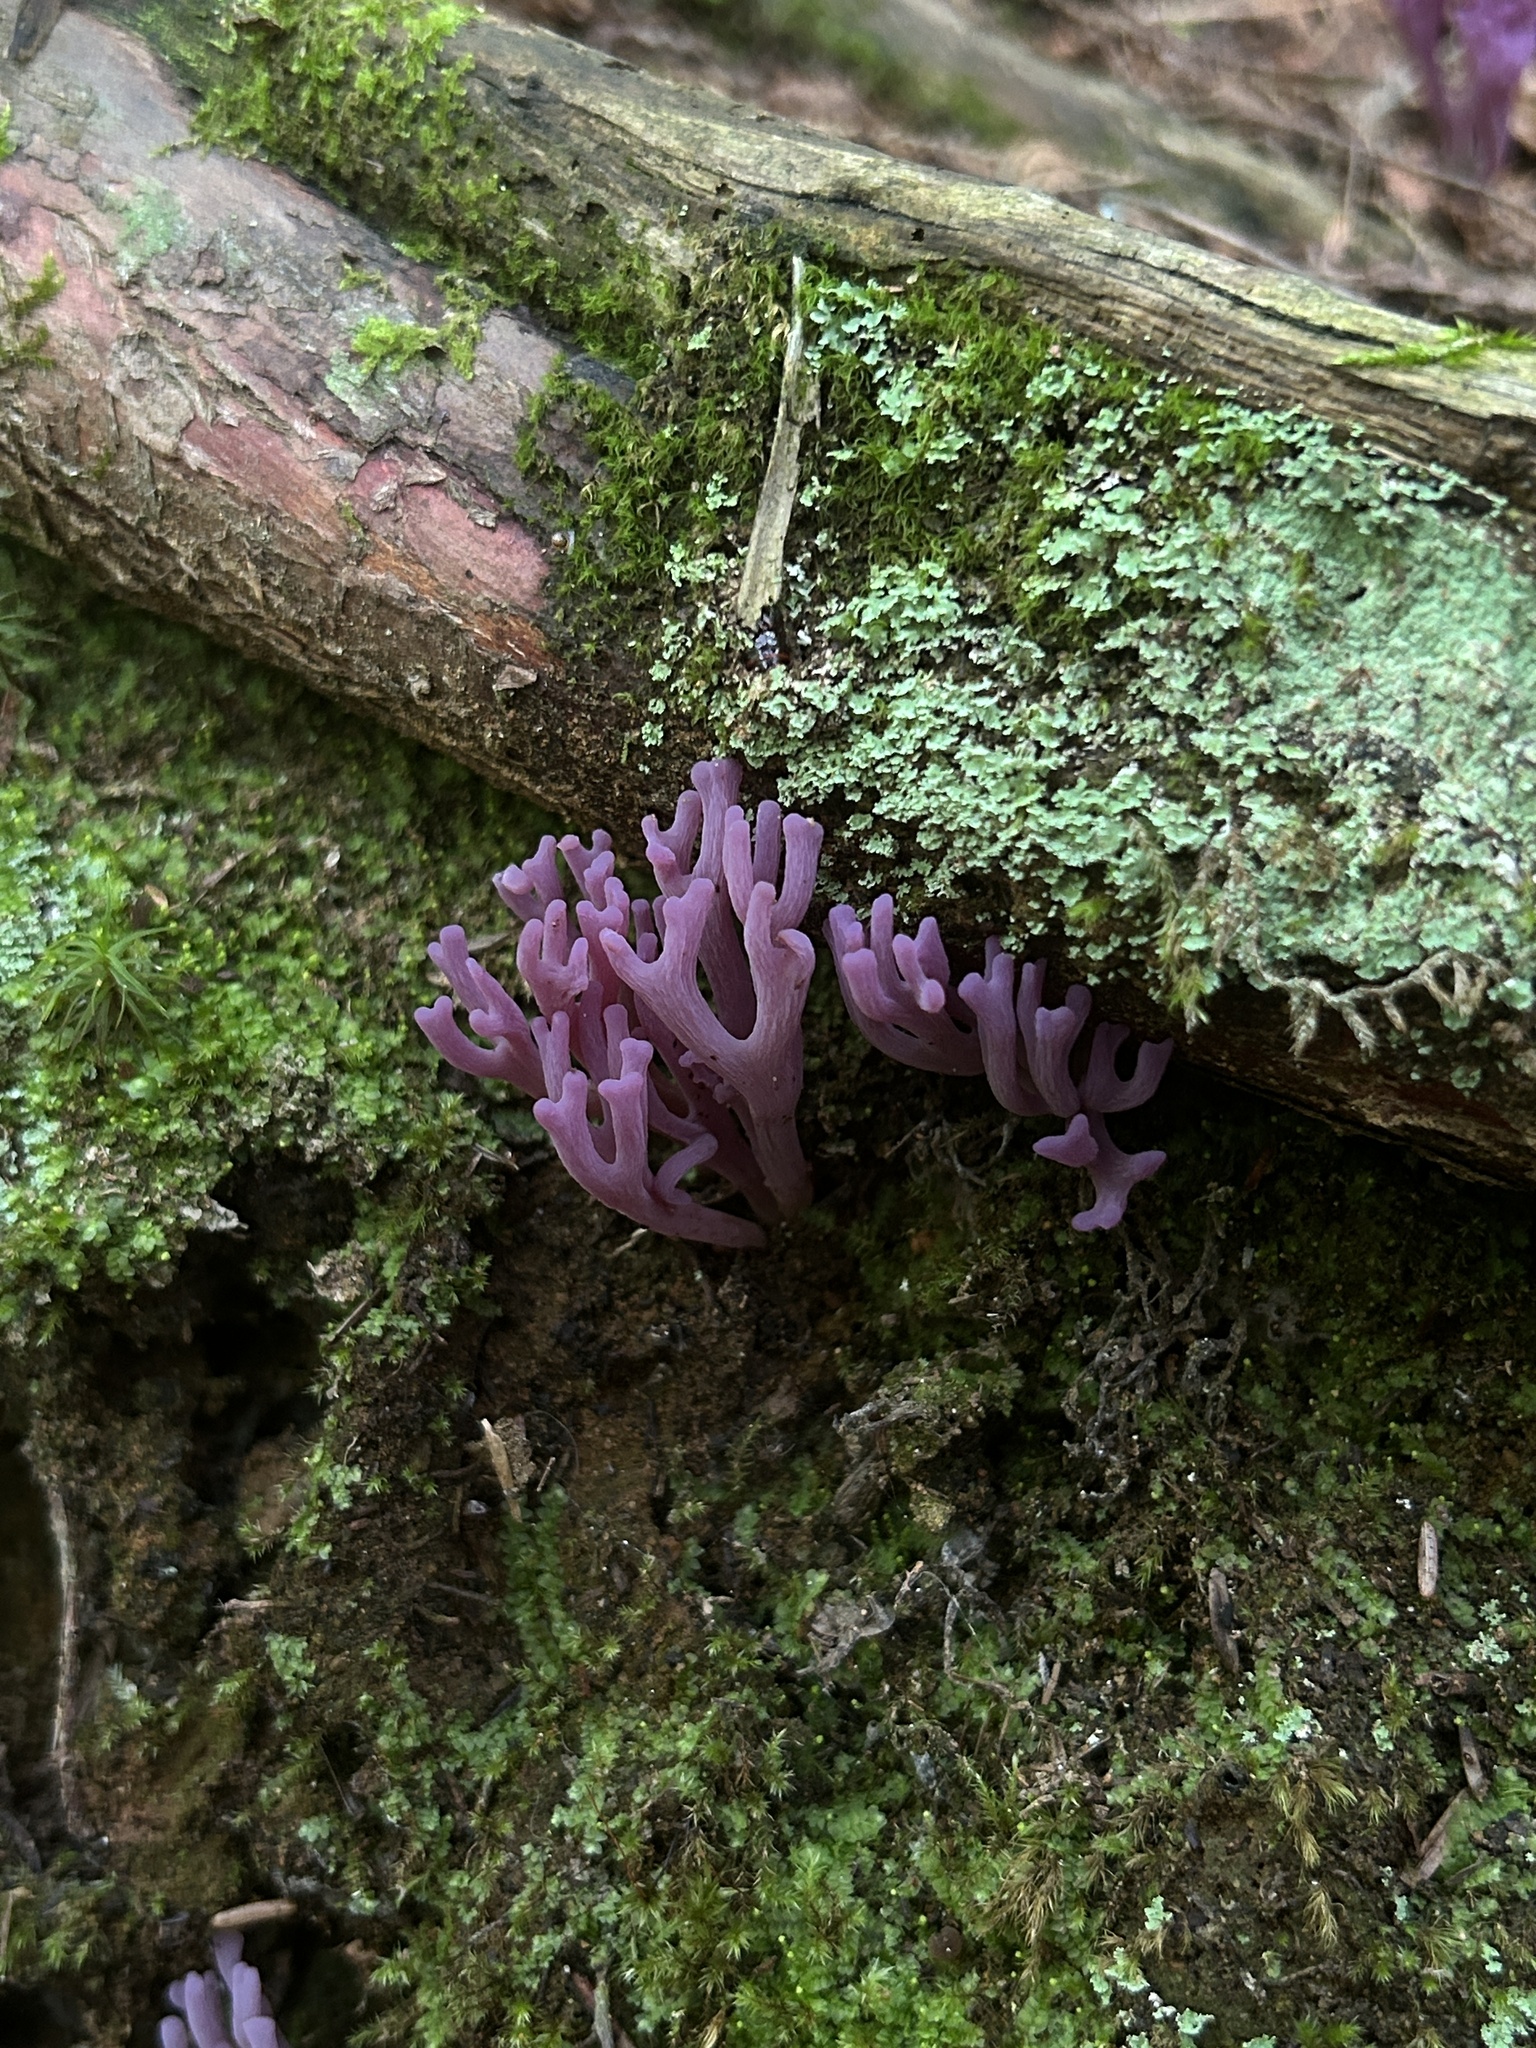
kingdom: Fungi
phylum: Basidiomycota
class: Agaricomycetes
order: Agaricales
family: Clavariaceae
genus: Clavaria
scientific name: Clavaria zollingeri
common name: Violet coral
